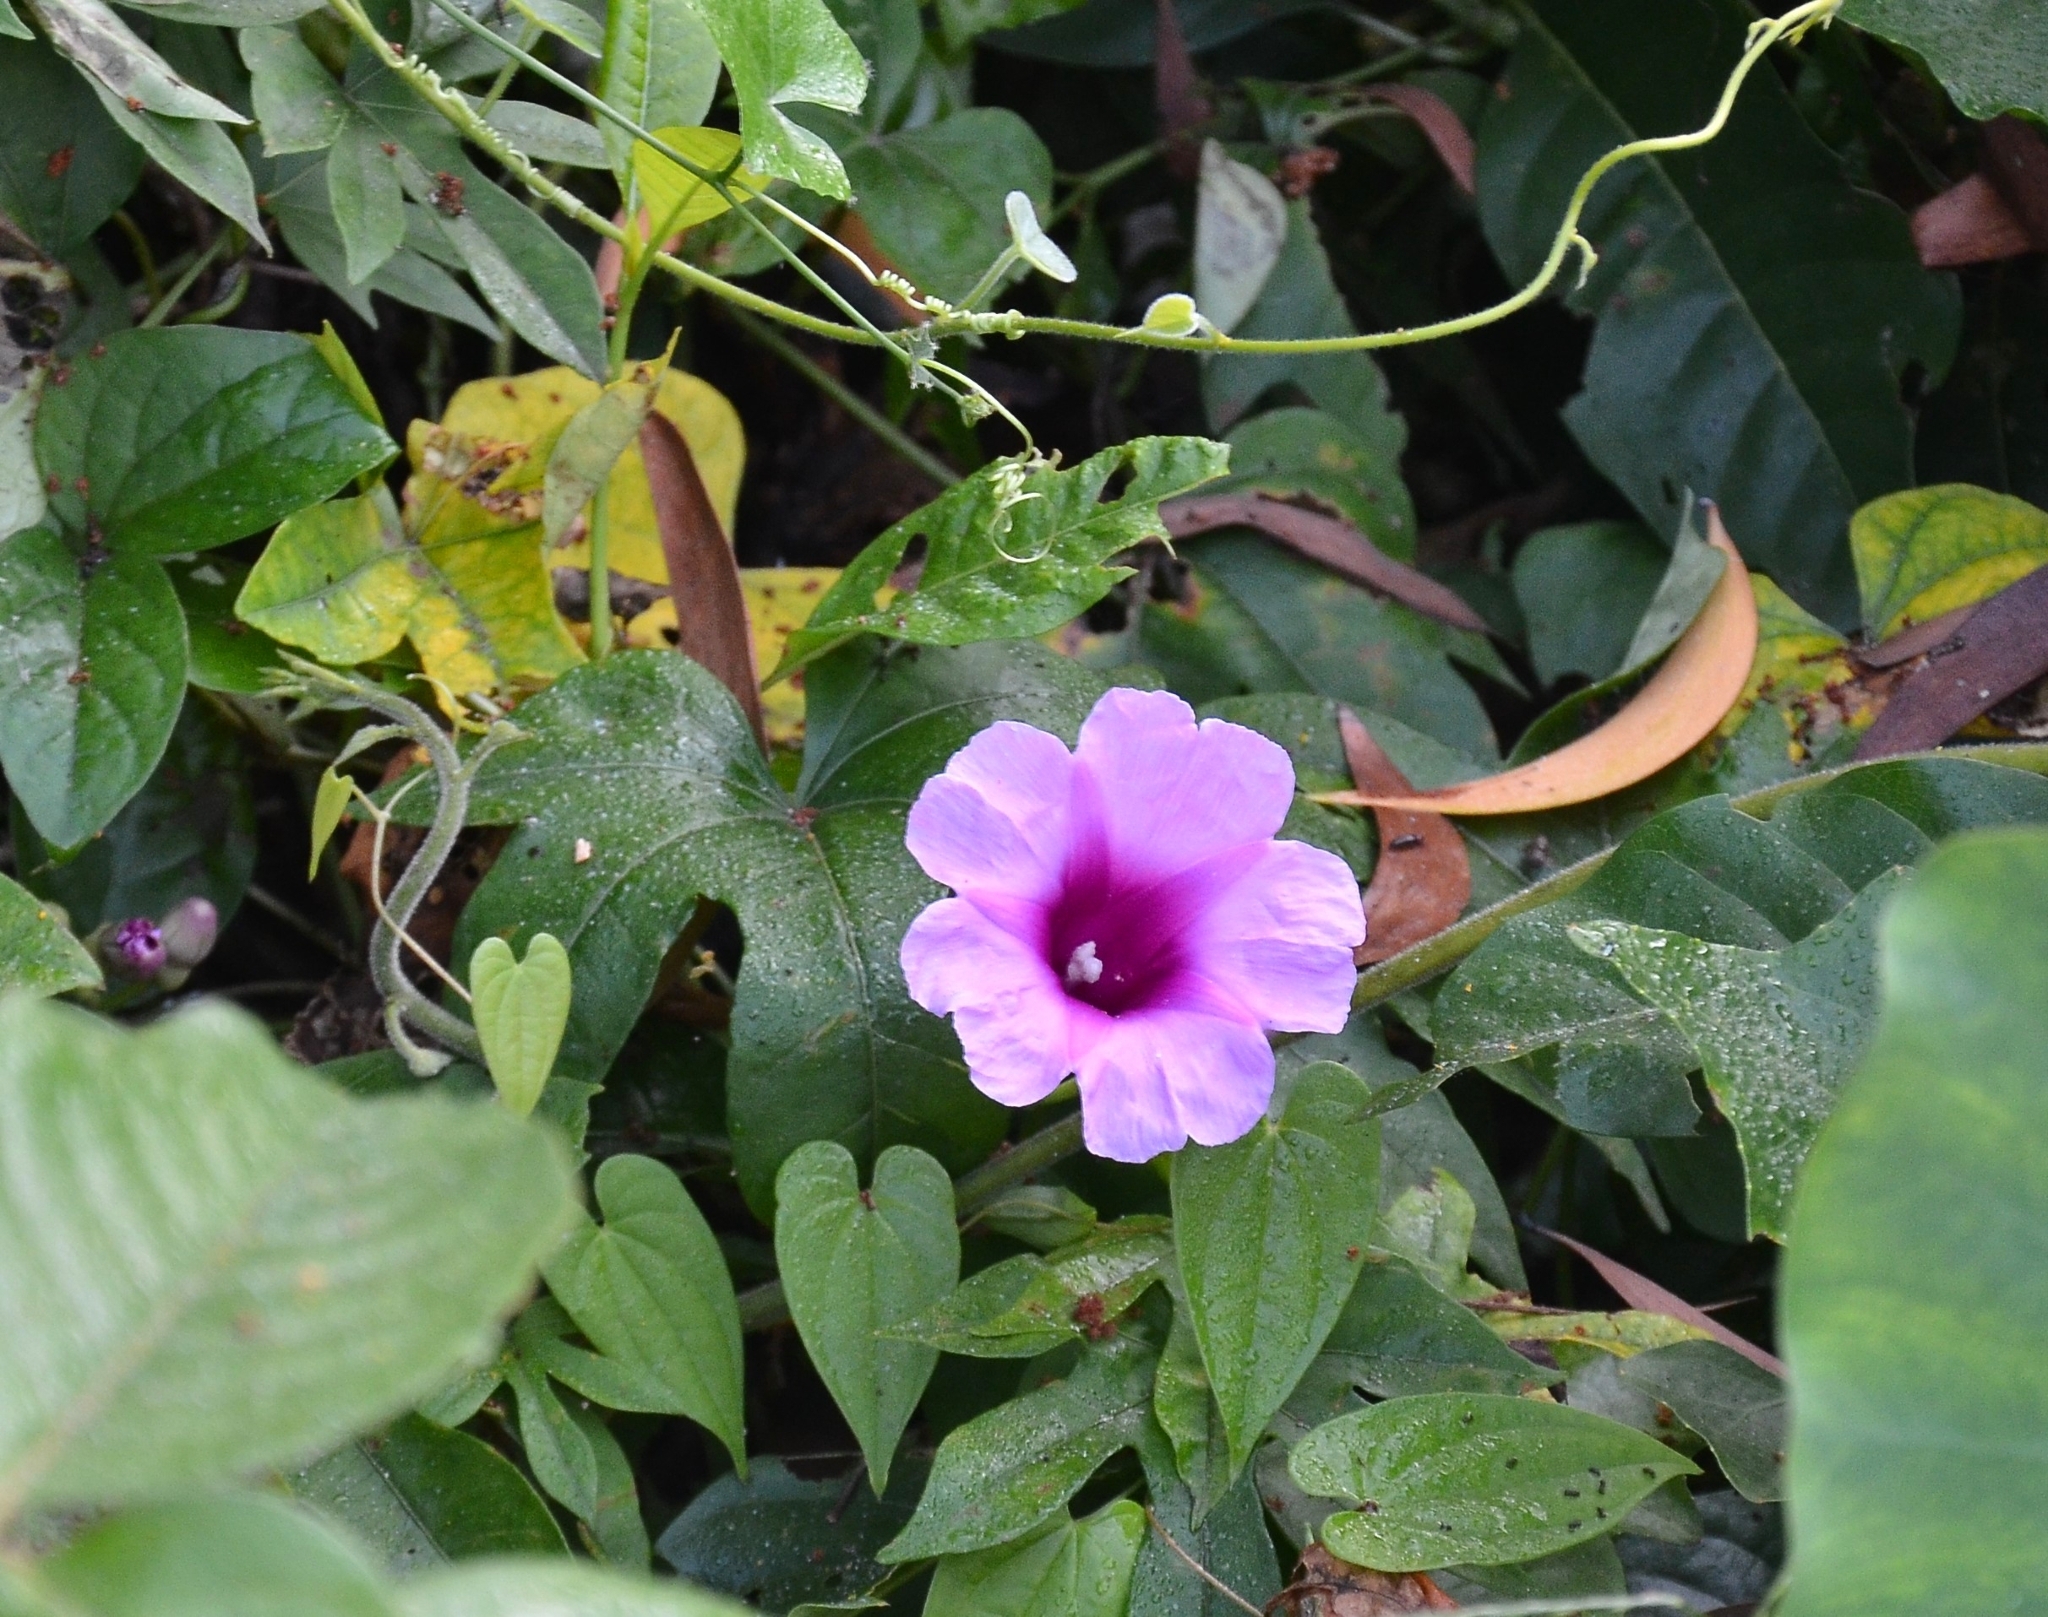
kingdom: Plantae
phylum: Tracheophyta
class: Magnoliopsida
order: Solanales
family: Convolvulaceae
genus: Ipomoea
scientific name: Ipomoea mauritiana
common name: Mauritanian convolvulus
